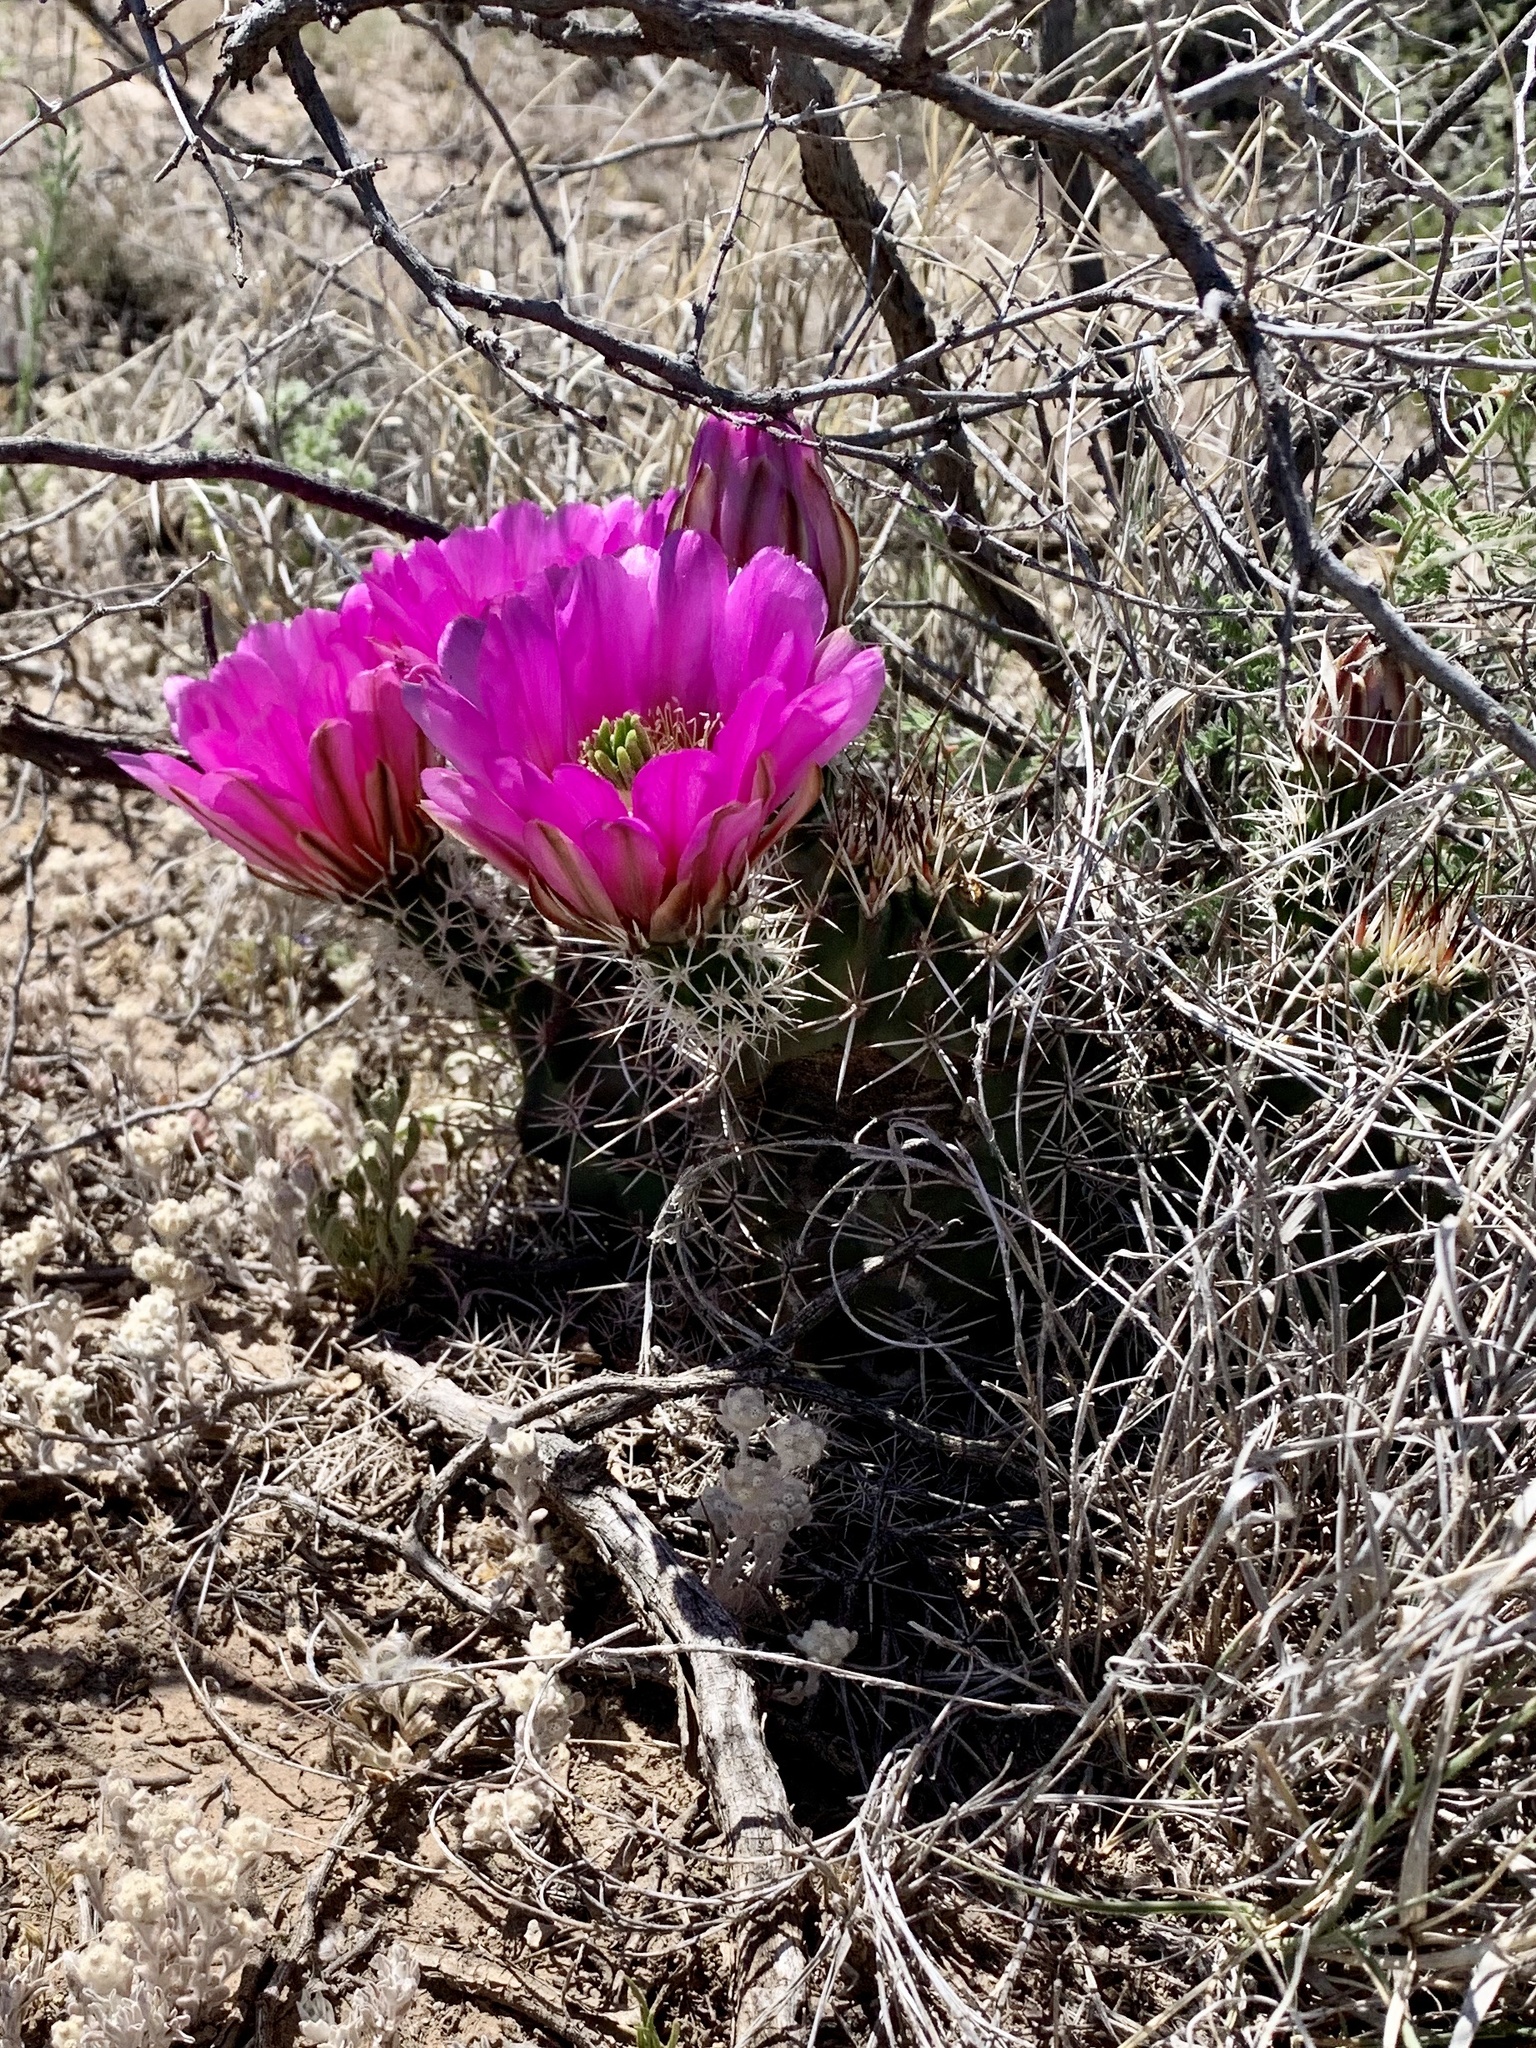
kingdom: Plantae
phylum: Tracheophyta
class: Magnoliopsida
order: Caryophyllales
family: Cactaceae
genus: Echinocereus
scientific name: Echinocereus fendleri
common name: Fendler's hedgehog cactus
